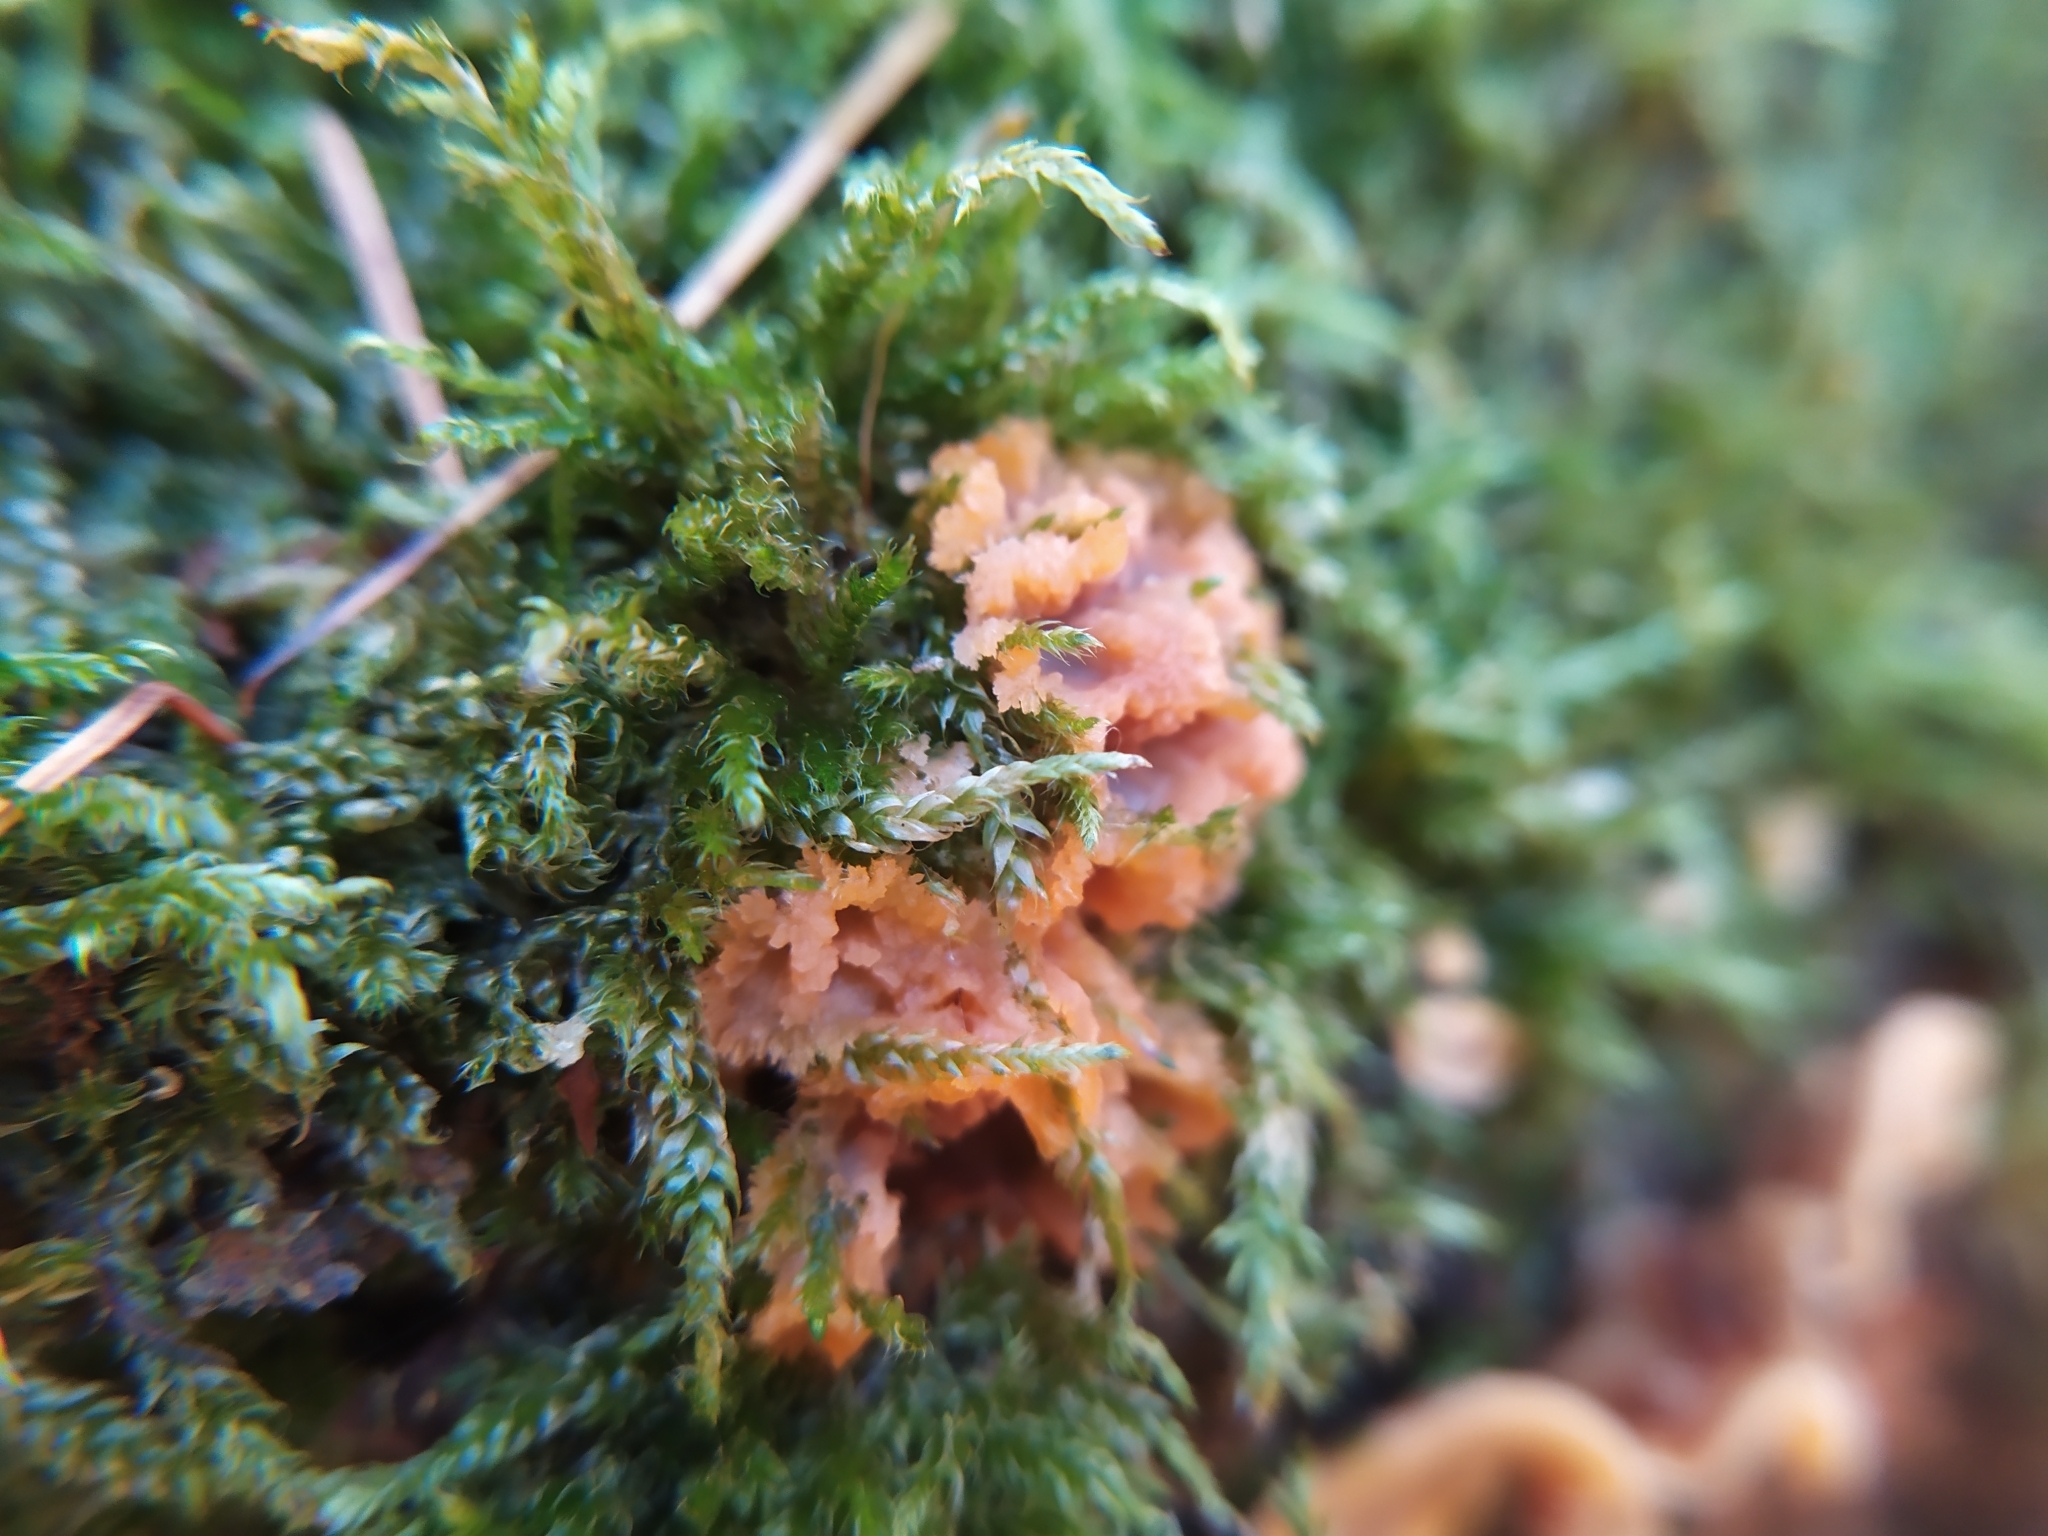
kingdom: Fungi
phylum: Basidiomycota
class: Agaricomycetes
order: Polyporales
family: Meruliaceae
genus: Phlebia
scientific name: Phlebia radiata
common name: Wrinkled crust
